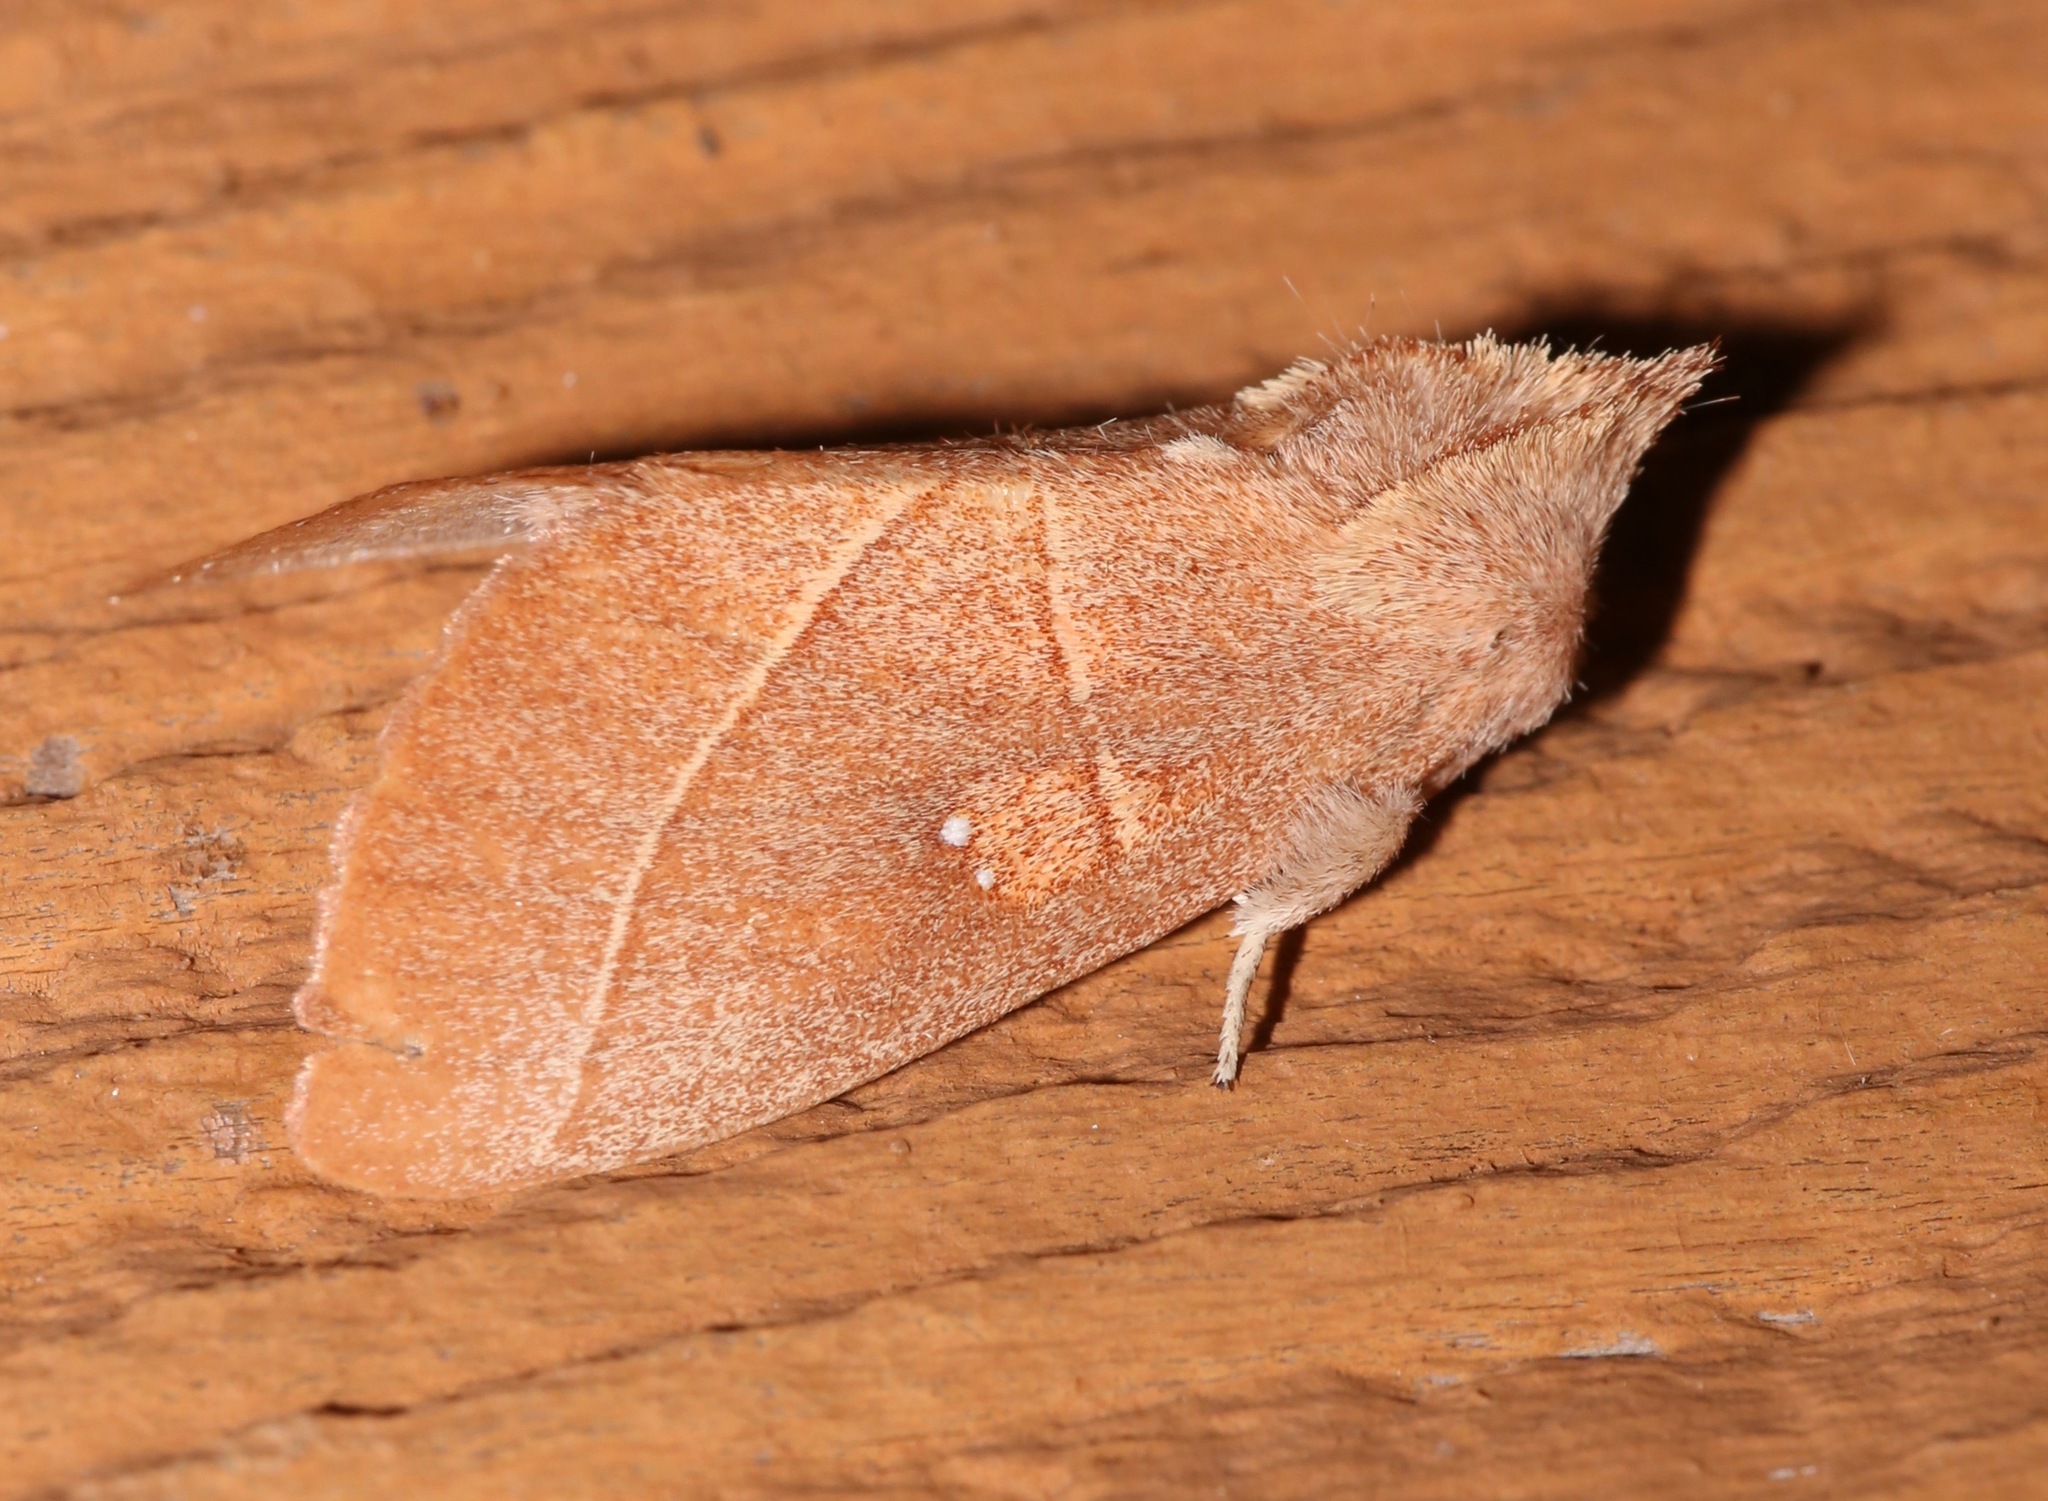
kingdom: Animalia
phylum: Arthropoda
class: Insecta
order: Lepidoptera
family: Notodontidae
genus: Nadata
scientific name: Nadata gibbosa
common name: White-dotted prominent
